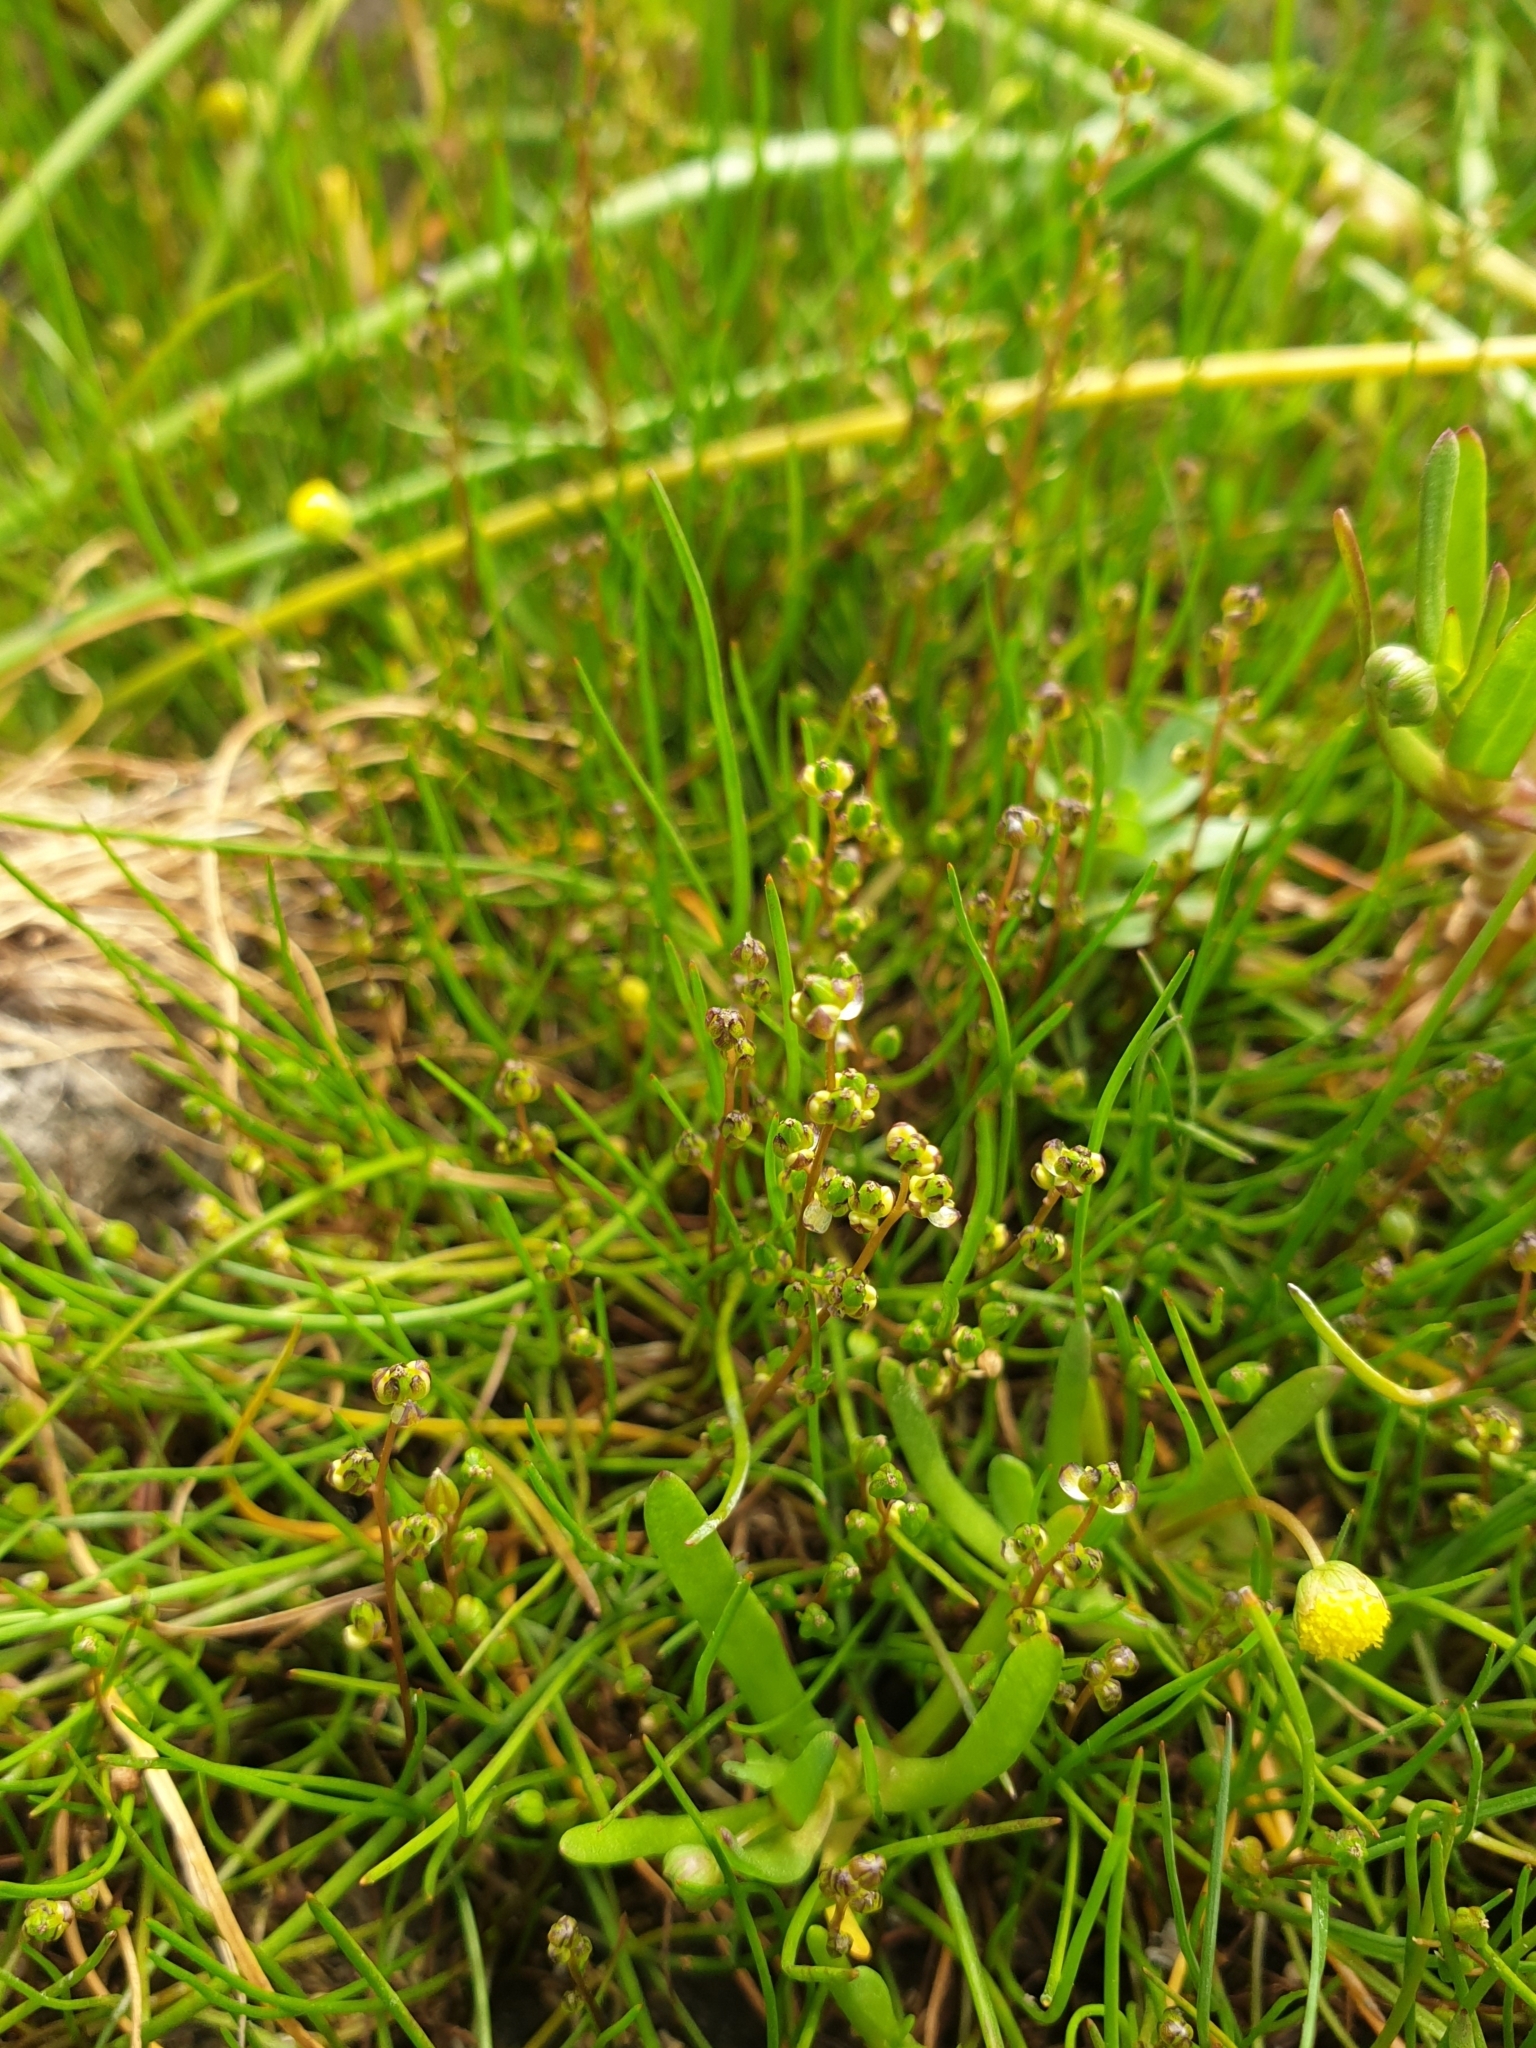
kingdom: Plantae
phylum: Tracheophyta
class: Liliopsida
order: Alismatales
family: Juncaginaceae
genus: Triglochin
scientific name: Triglochin striata
